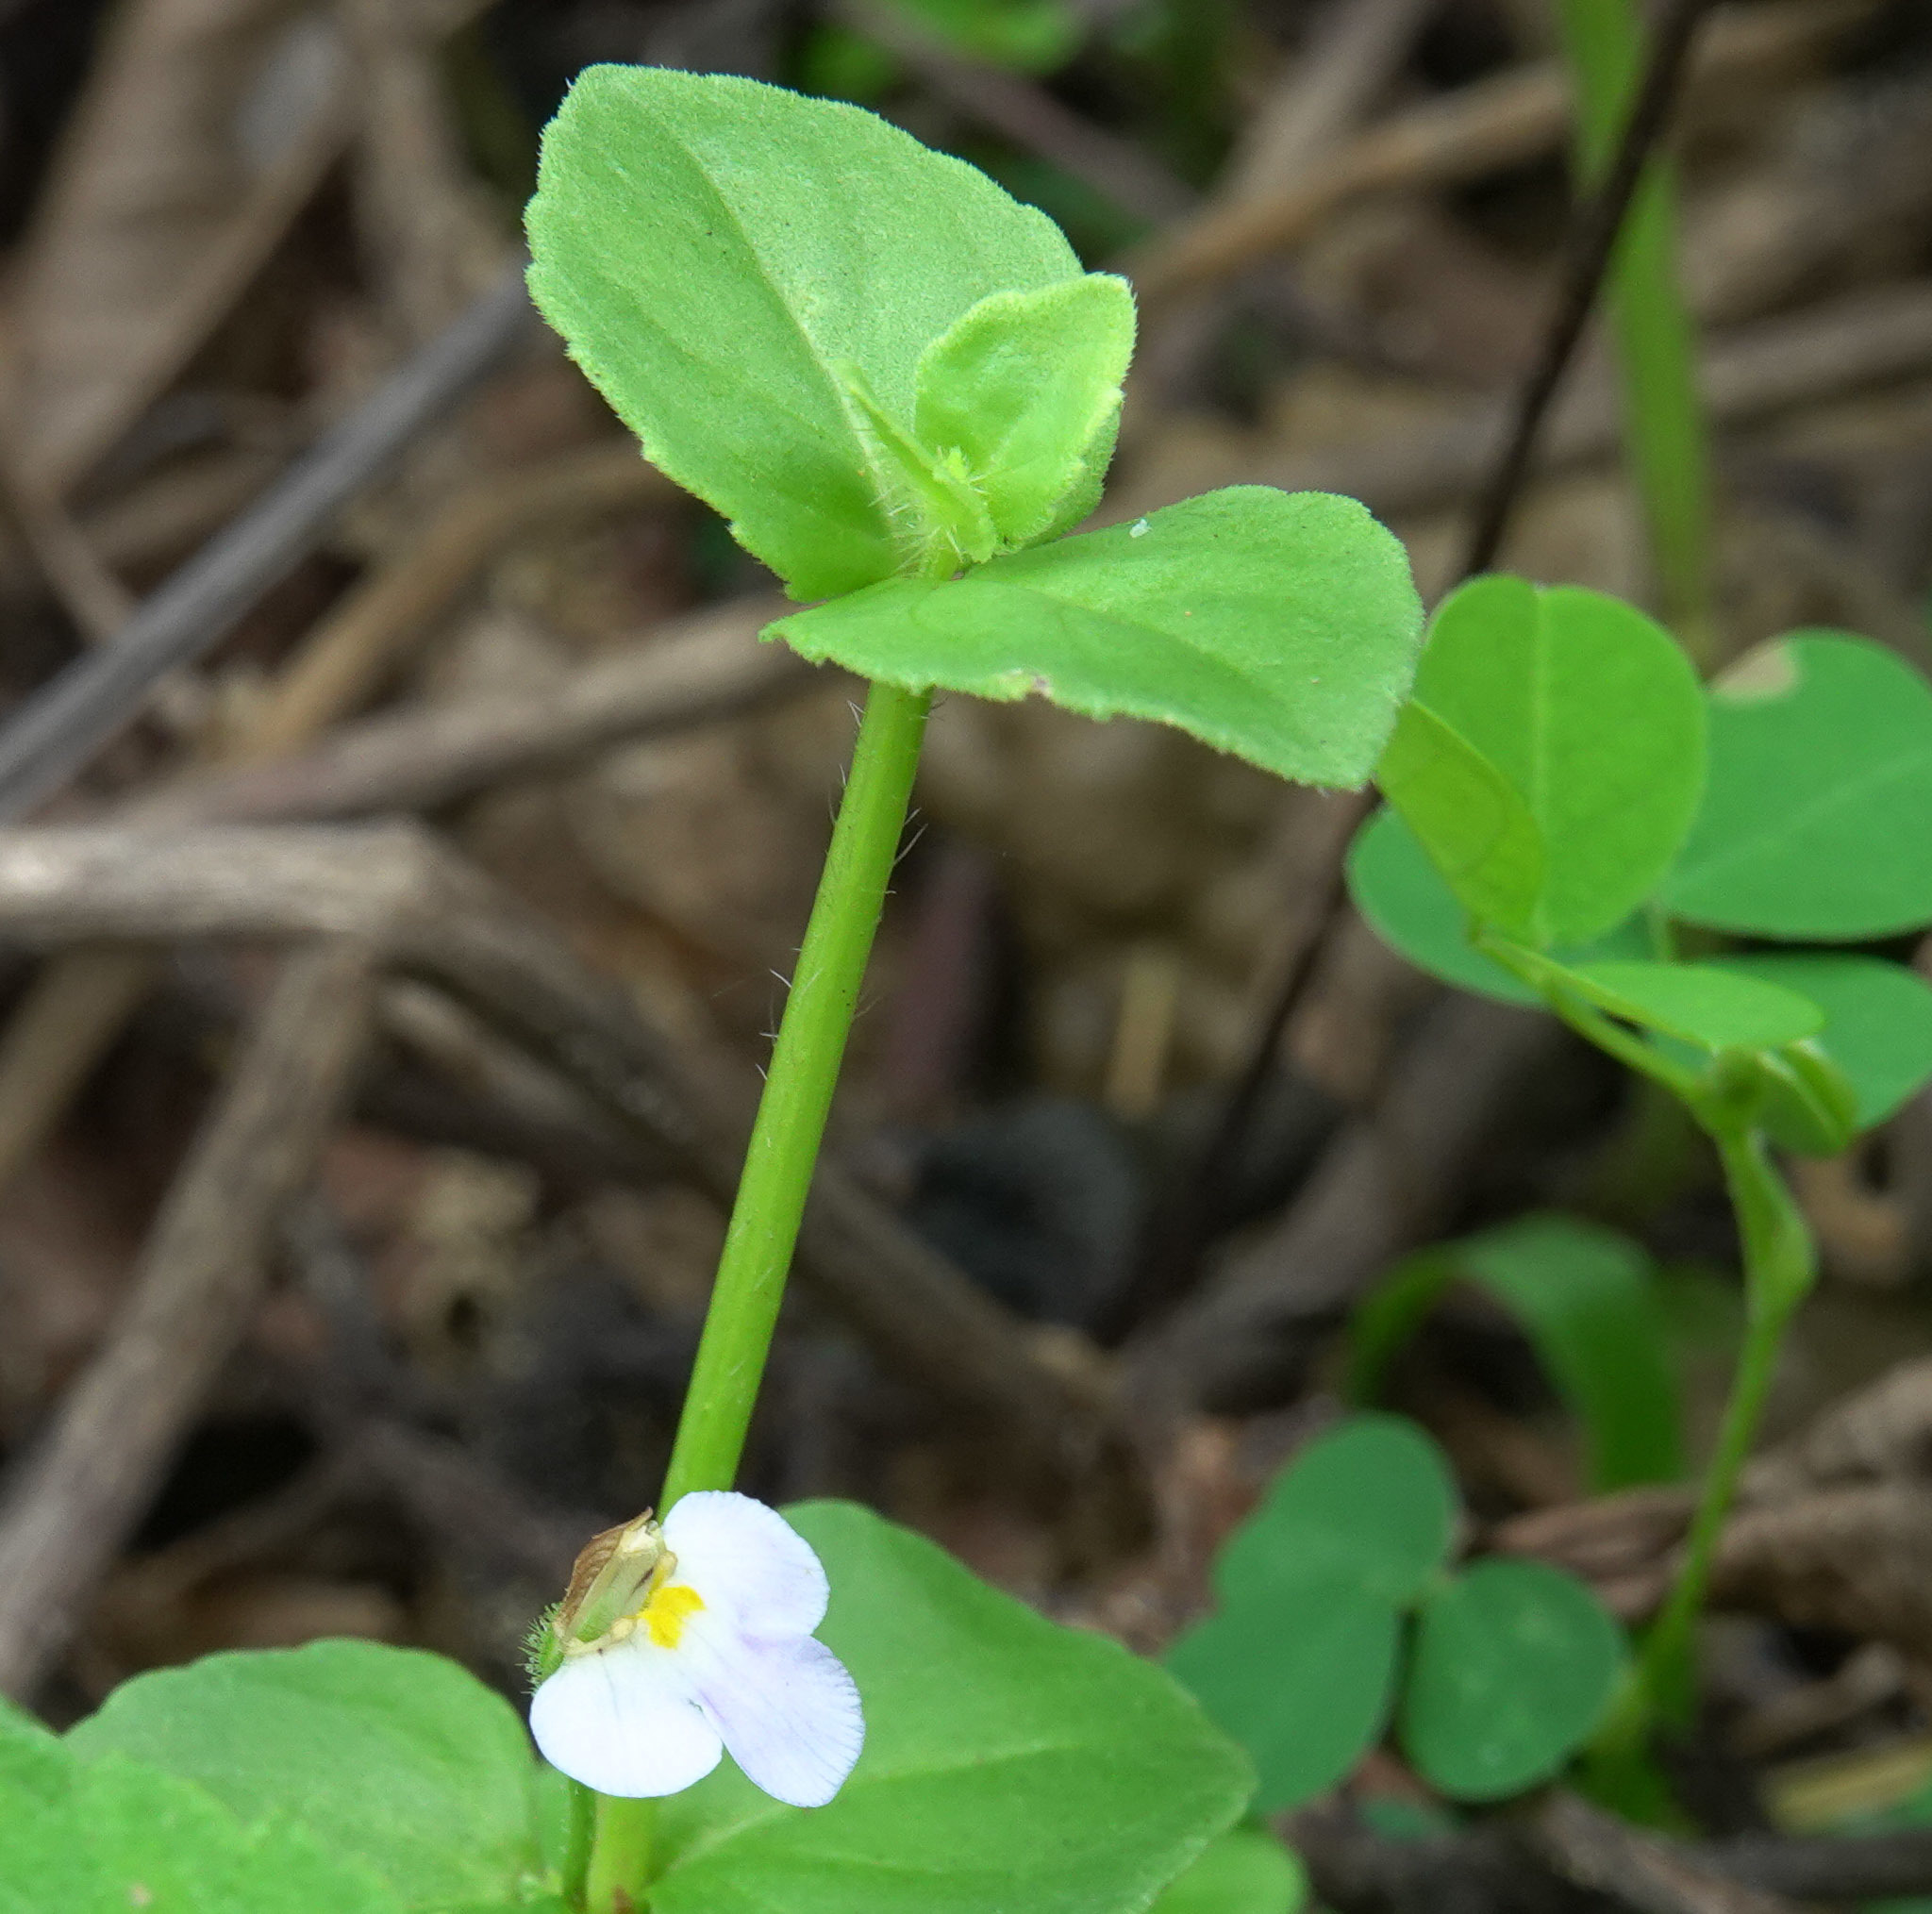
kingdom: Plantae
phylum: Tracheophyta
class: Magnoliopsida
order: Lamiales
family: Linderniaceae
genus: Torenia
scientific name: Torenia crustacea
